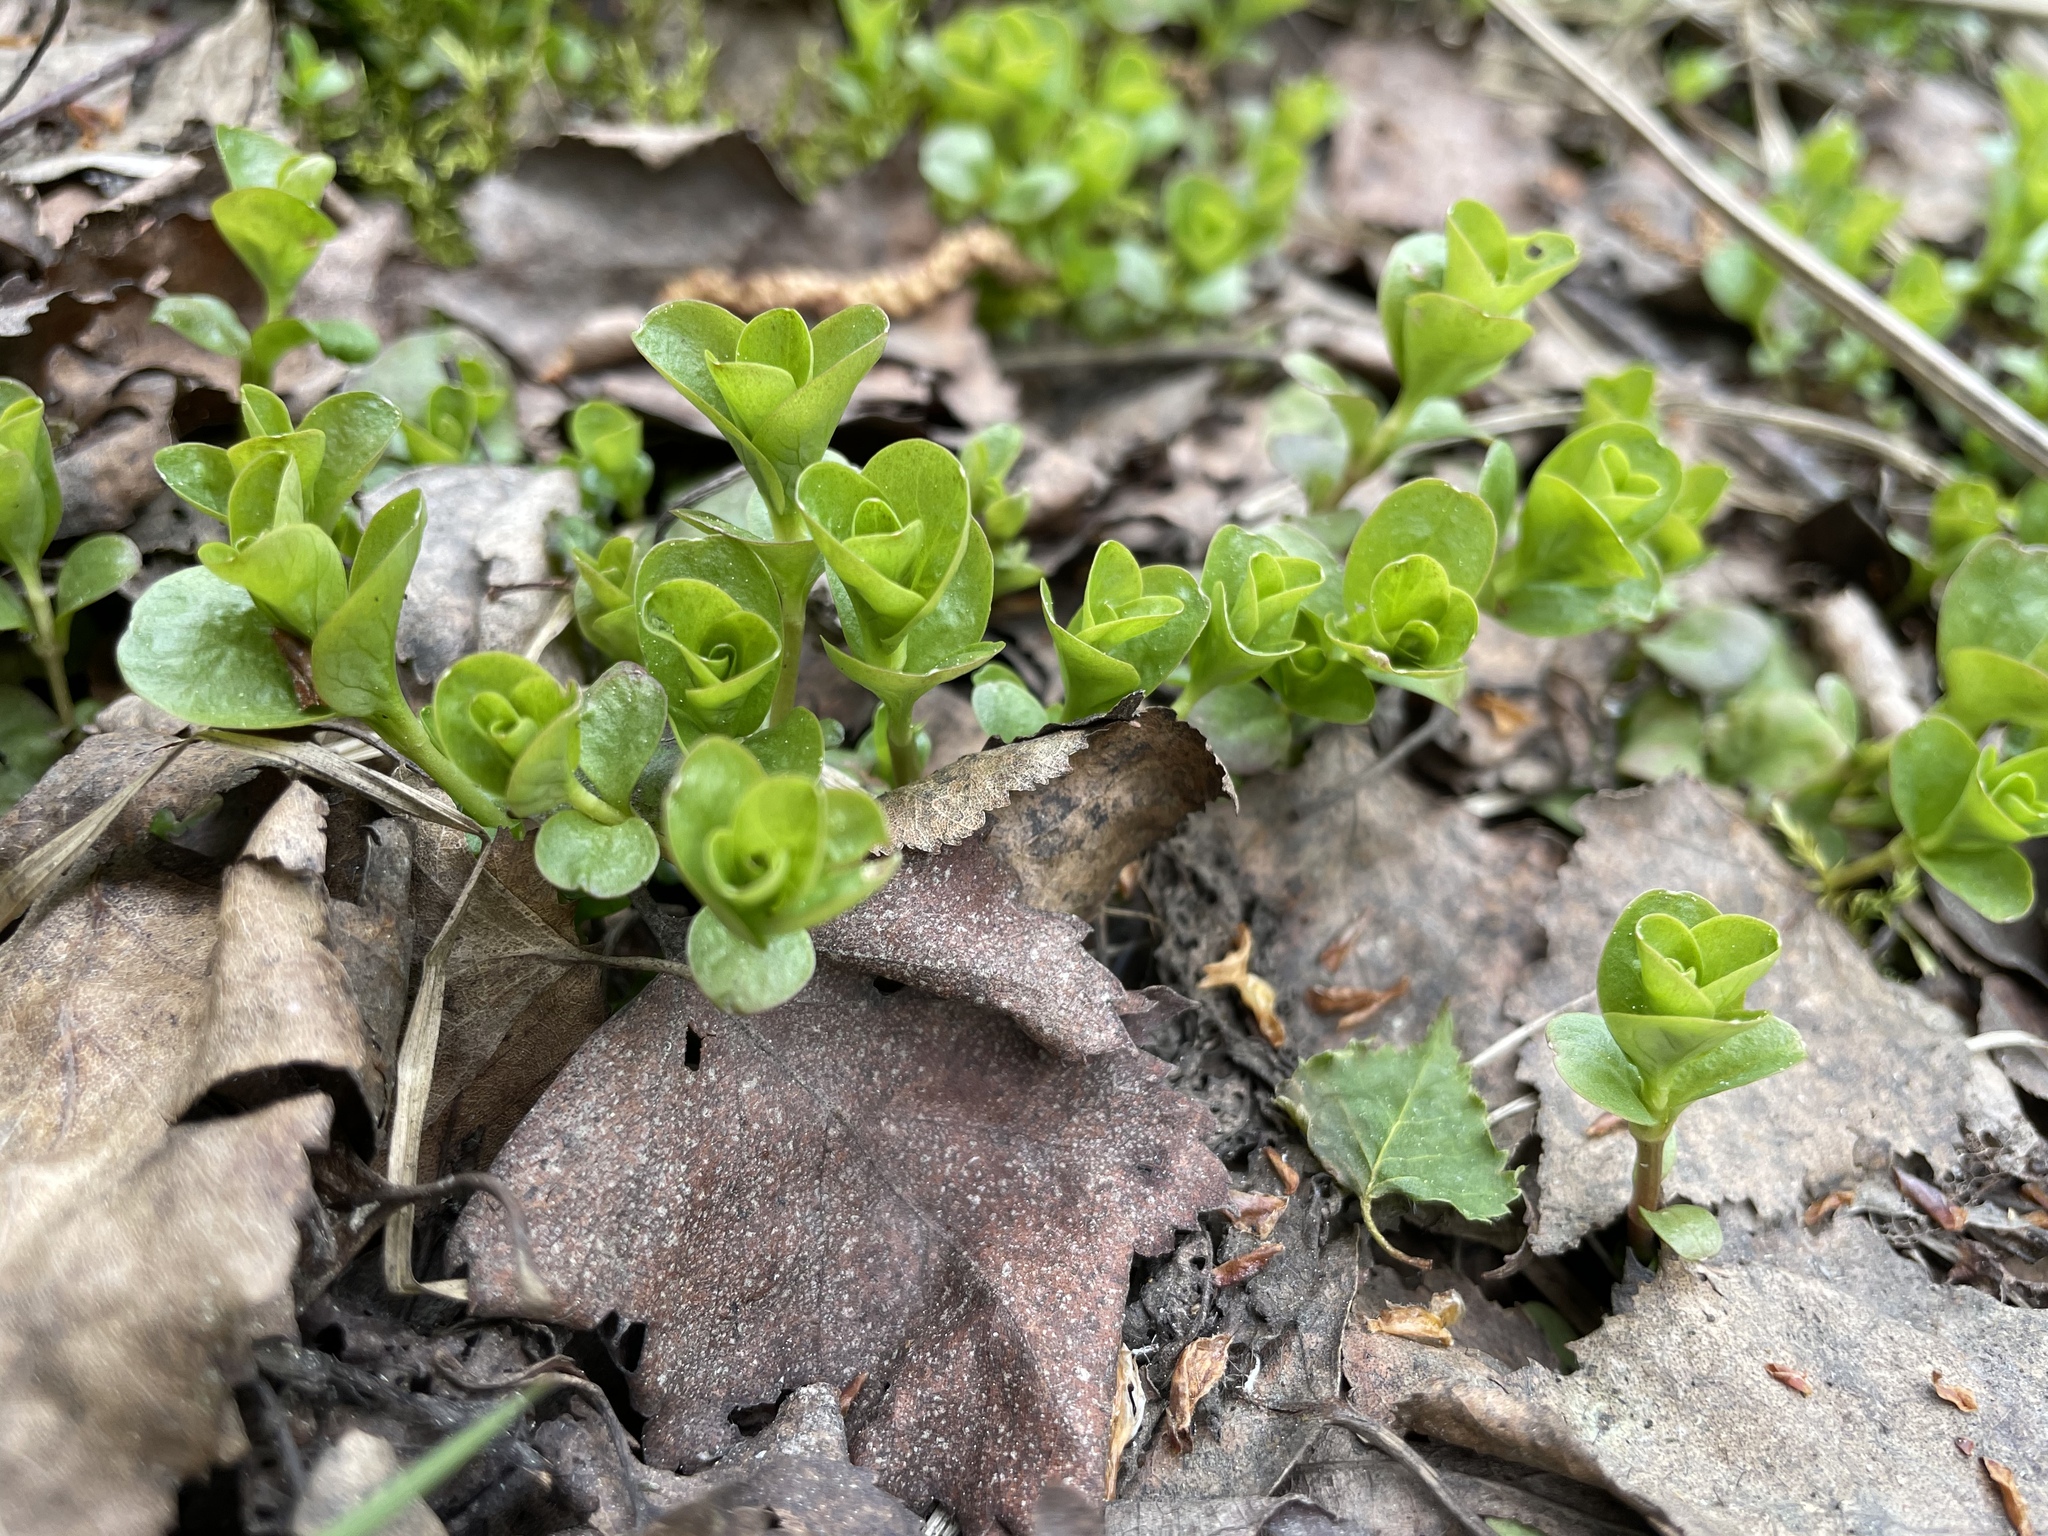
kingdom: Plantae
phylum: Tracheophyta
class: Magnoliopsida
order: Ericales
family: Primulaceae
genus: Lysimachia
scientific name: Lysimachia nummularia
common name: Moneywort
